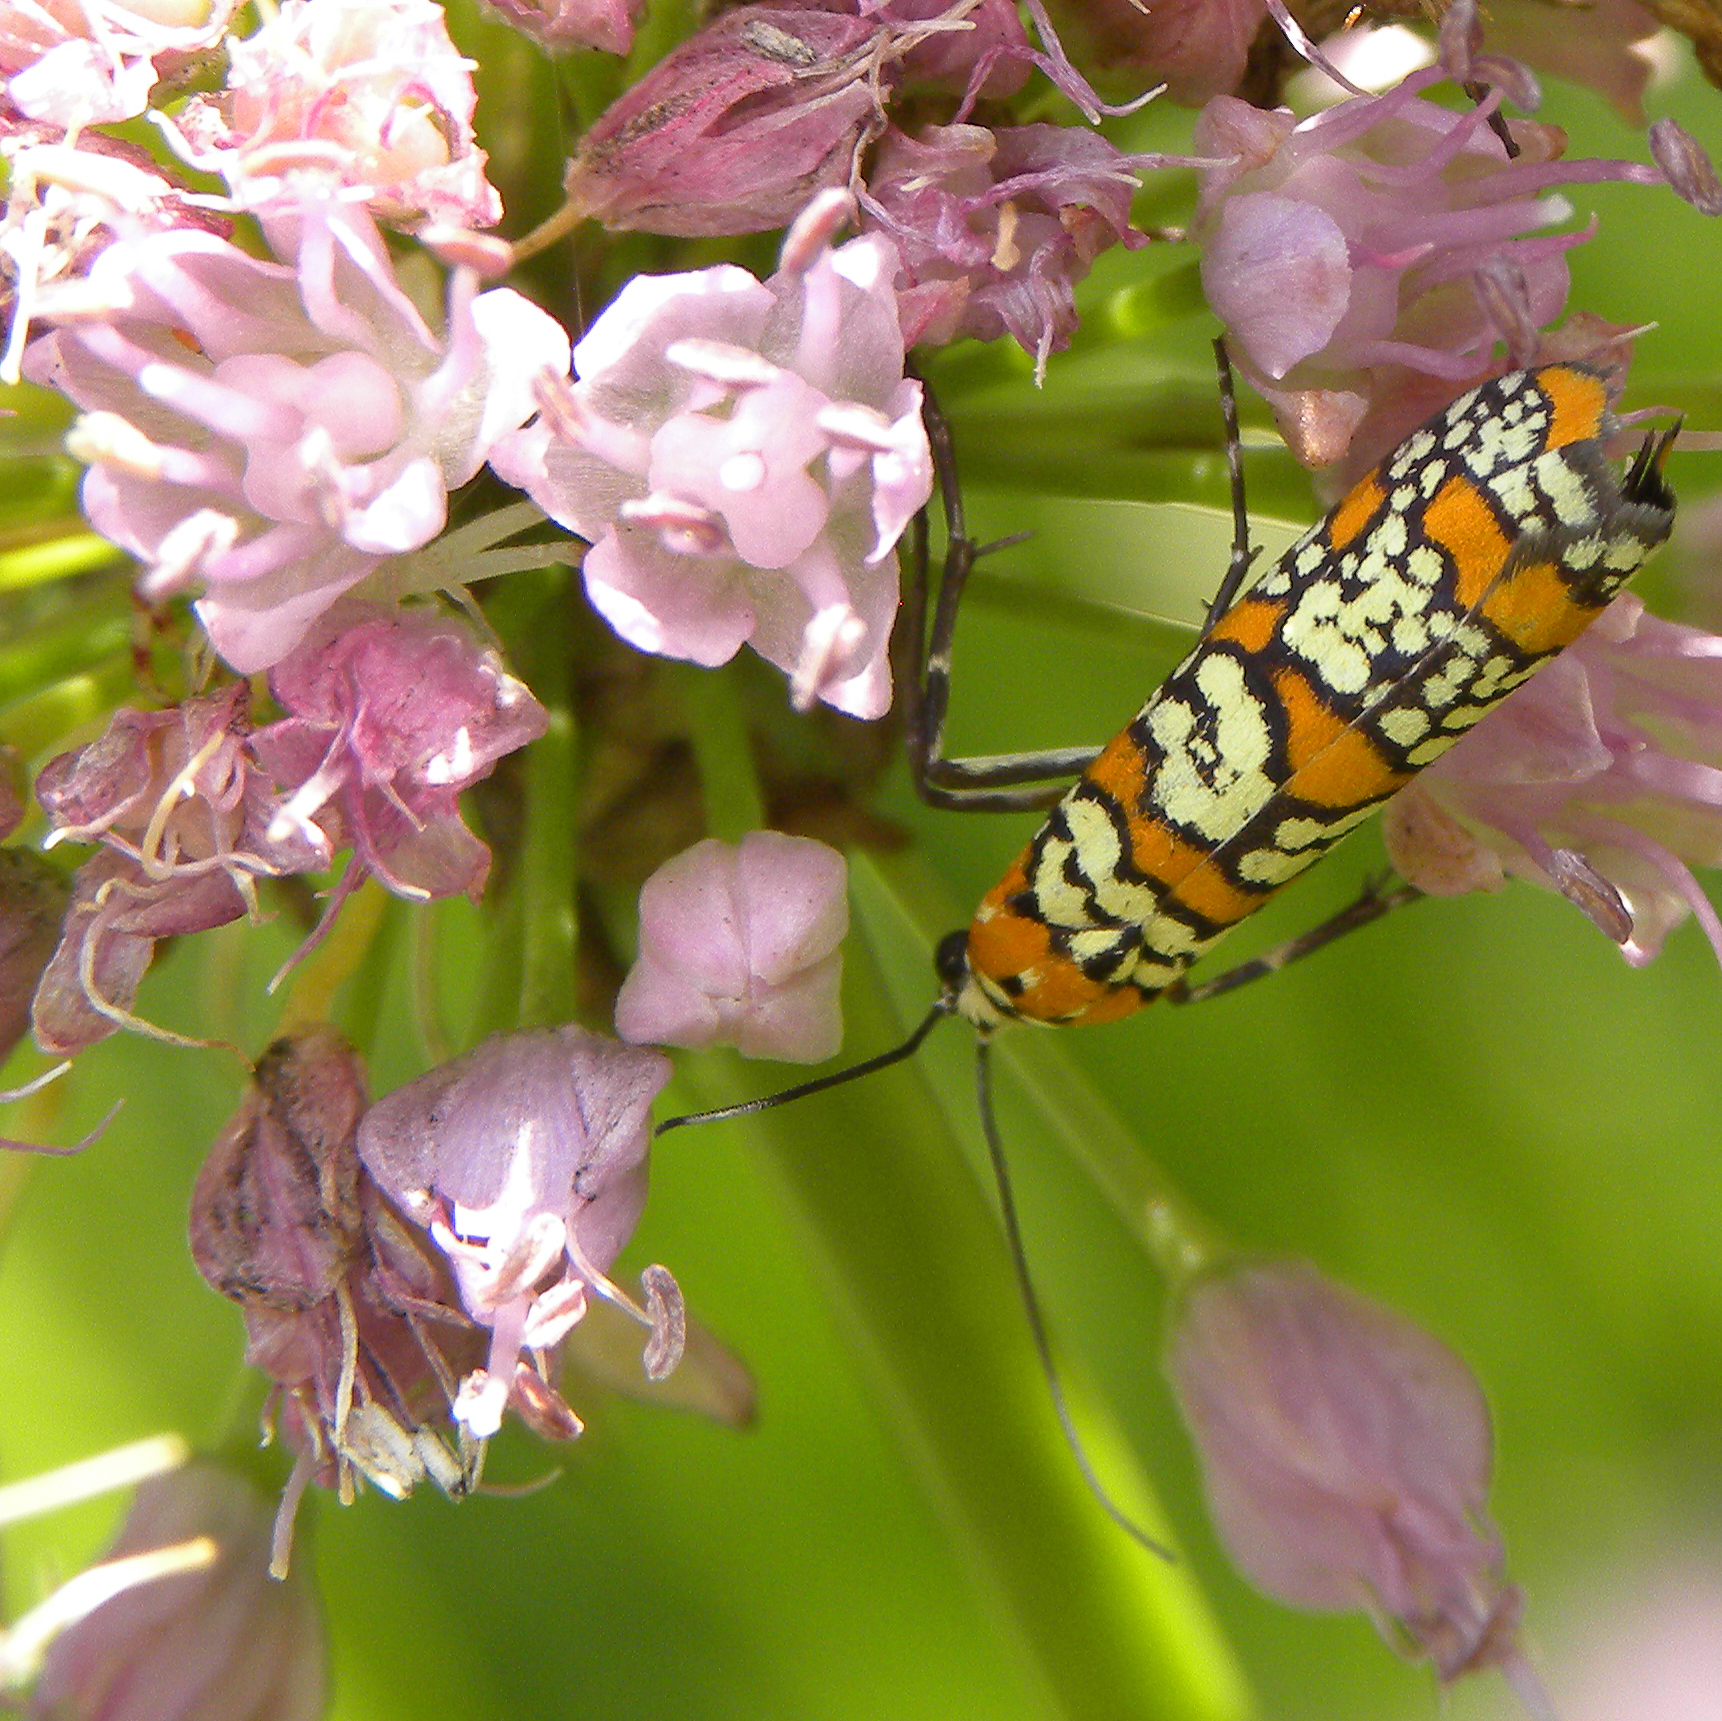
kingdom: Animalia
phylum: Arthropoda
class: Insecta
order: Lepidoptera
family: Attevidae
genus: Atteva
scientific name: Atteva punctella
